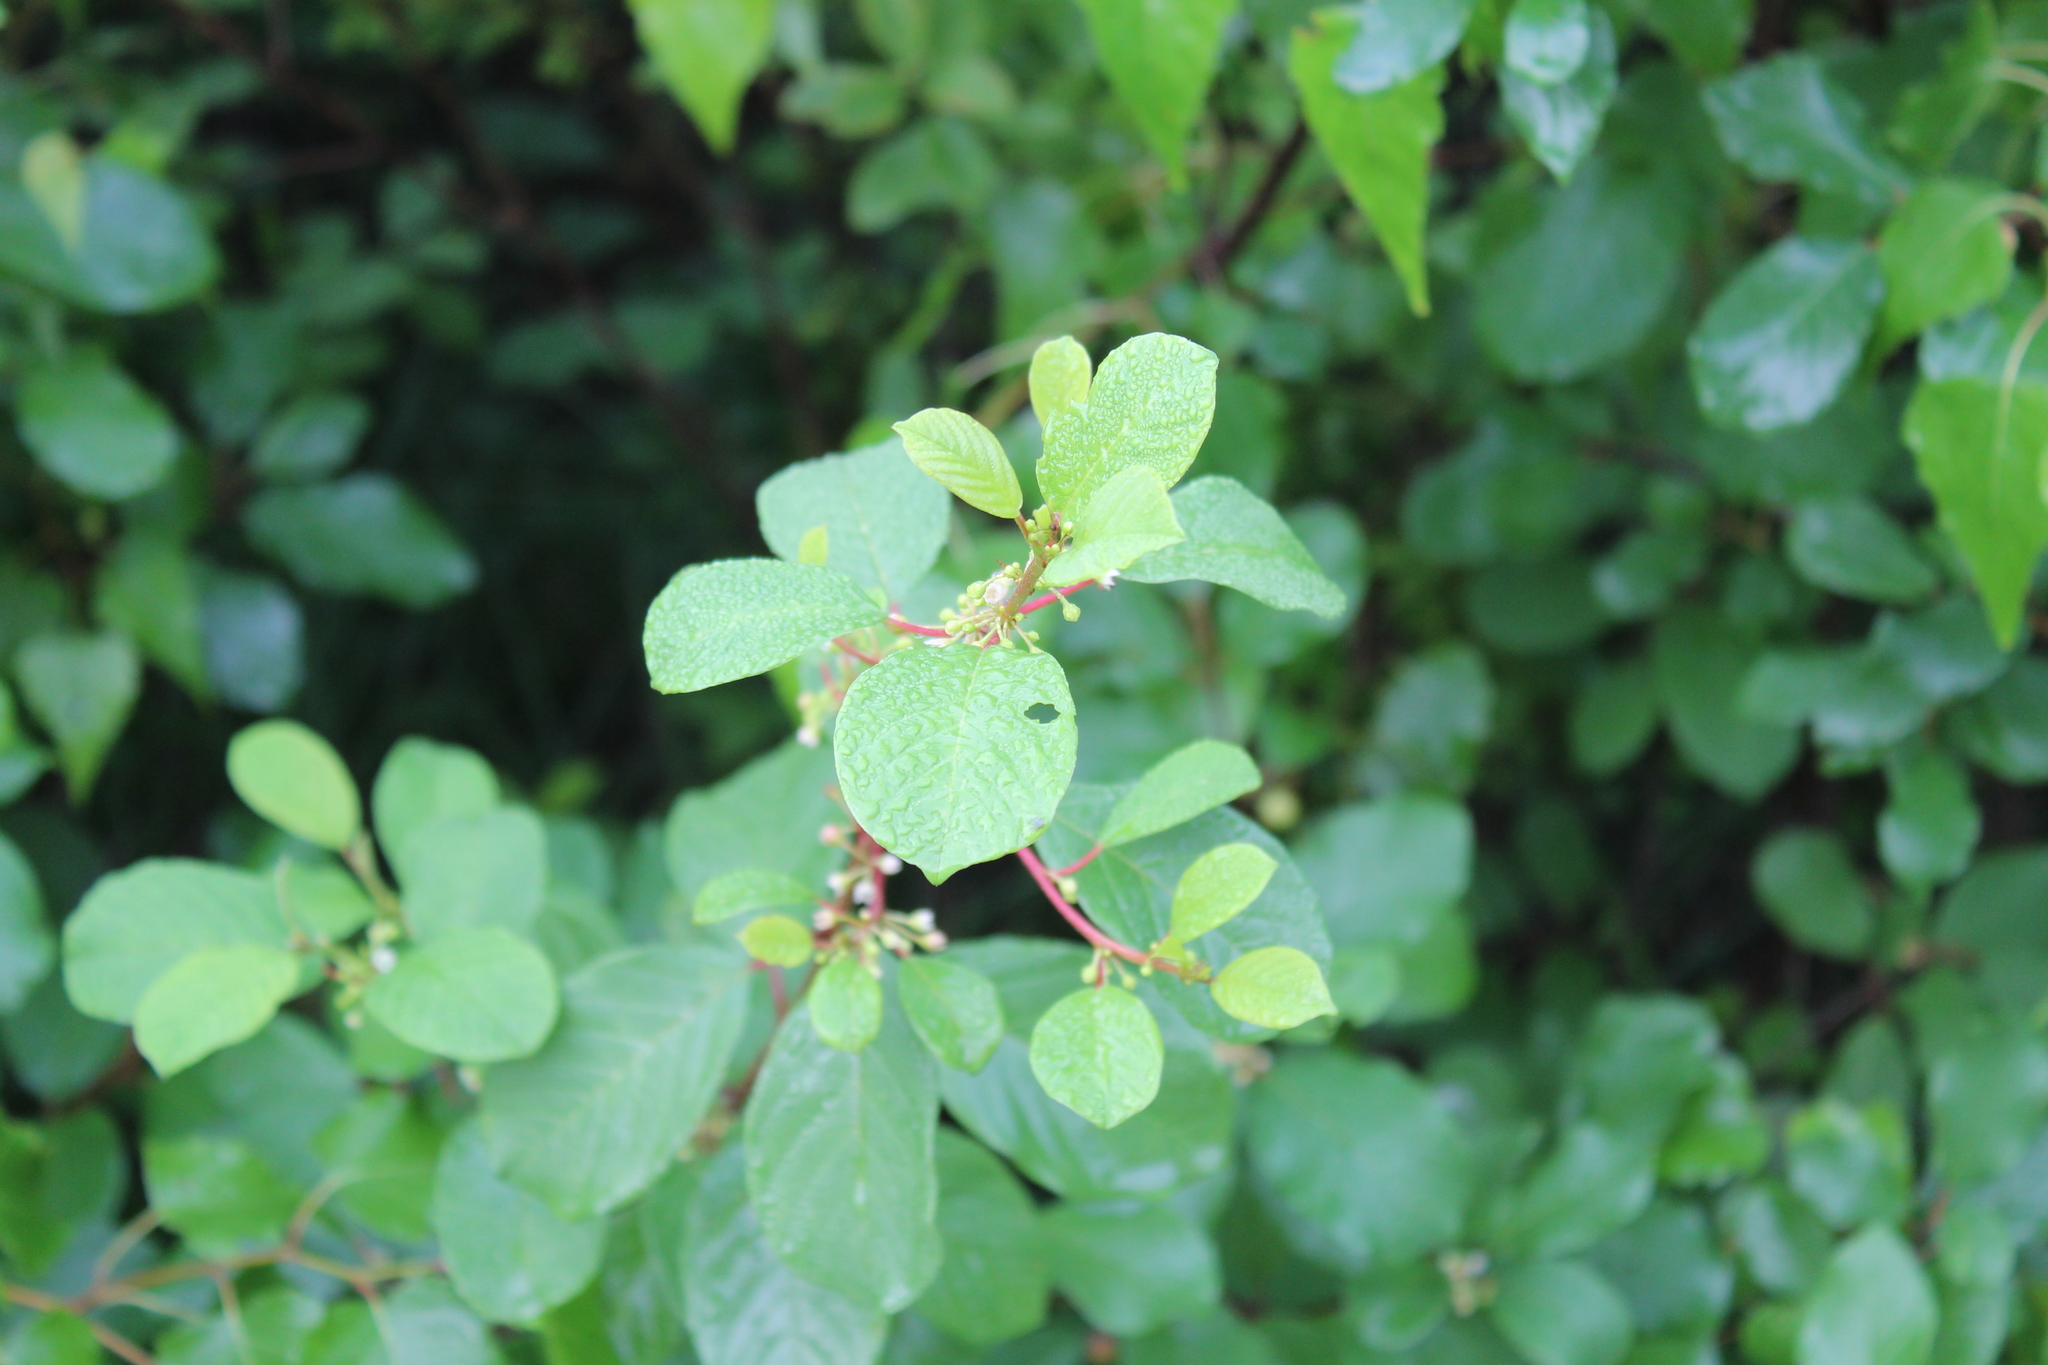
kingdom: Plantae
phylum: Tracheophyta
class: Magnoliopsida
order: Rosales
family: Rhamnaceae
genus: Frangula
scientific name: Frangula alnus
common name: Alder buckthorn
